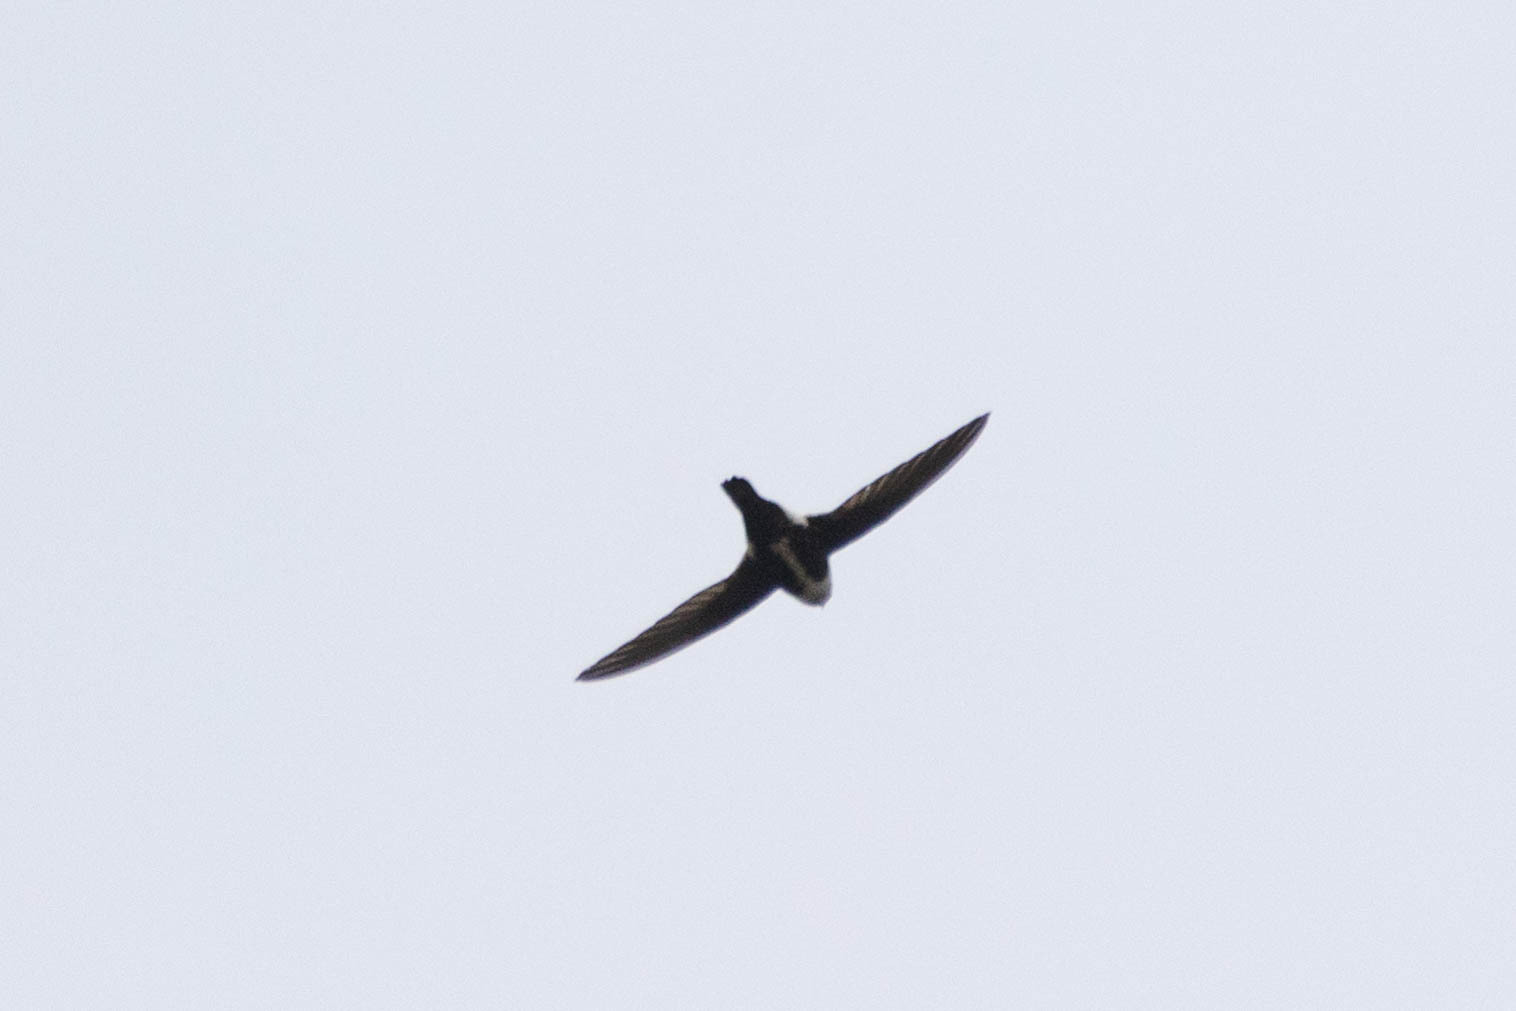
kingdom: Animalia
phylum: Chordata
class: Aves
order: Apodiformes
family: Apodidae
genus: Aeronautes
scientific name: Aeronautes saxatalis
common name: White-throated swift
